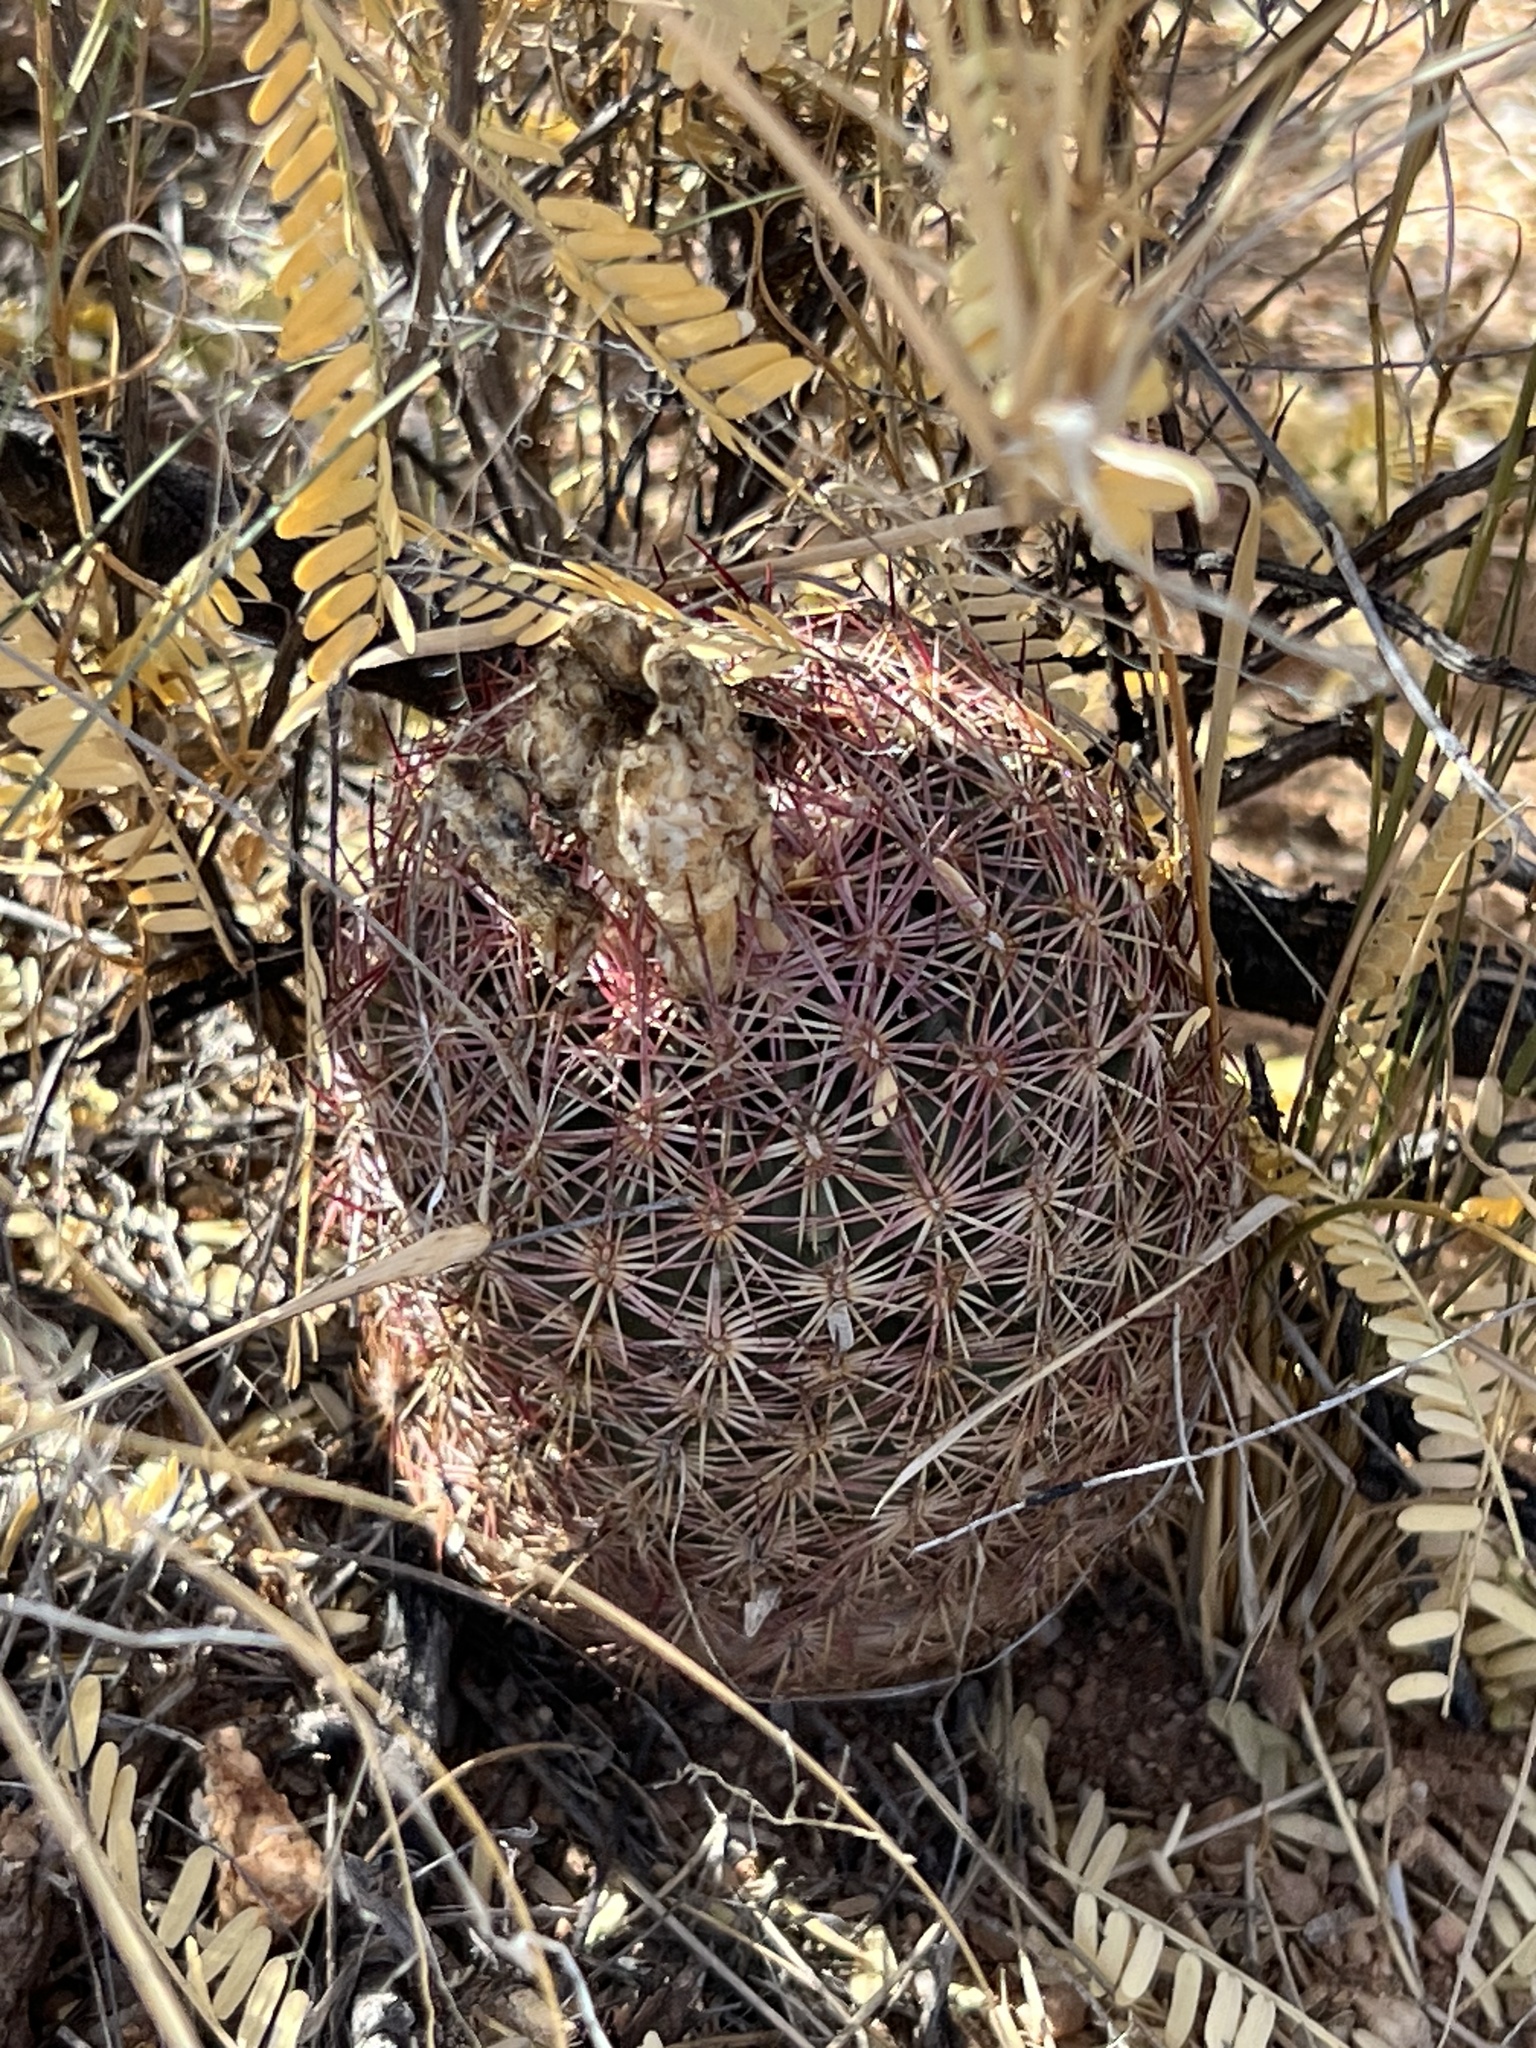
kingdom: Plantae
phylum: Tracheophyta
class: Magnoliopsida
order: Caryophyllales
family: Cactaceae
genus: Sclerocactus
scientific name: Sclerocactus johnsonii
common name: Eight-spine fishhook cactus
